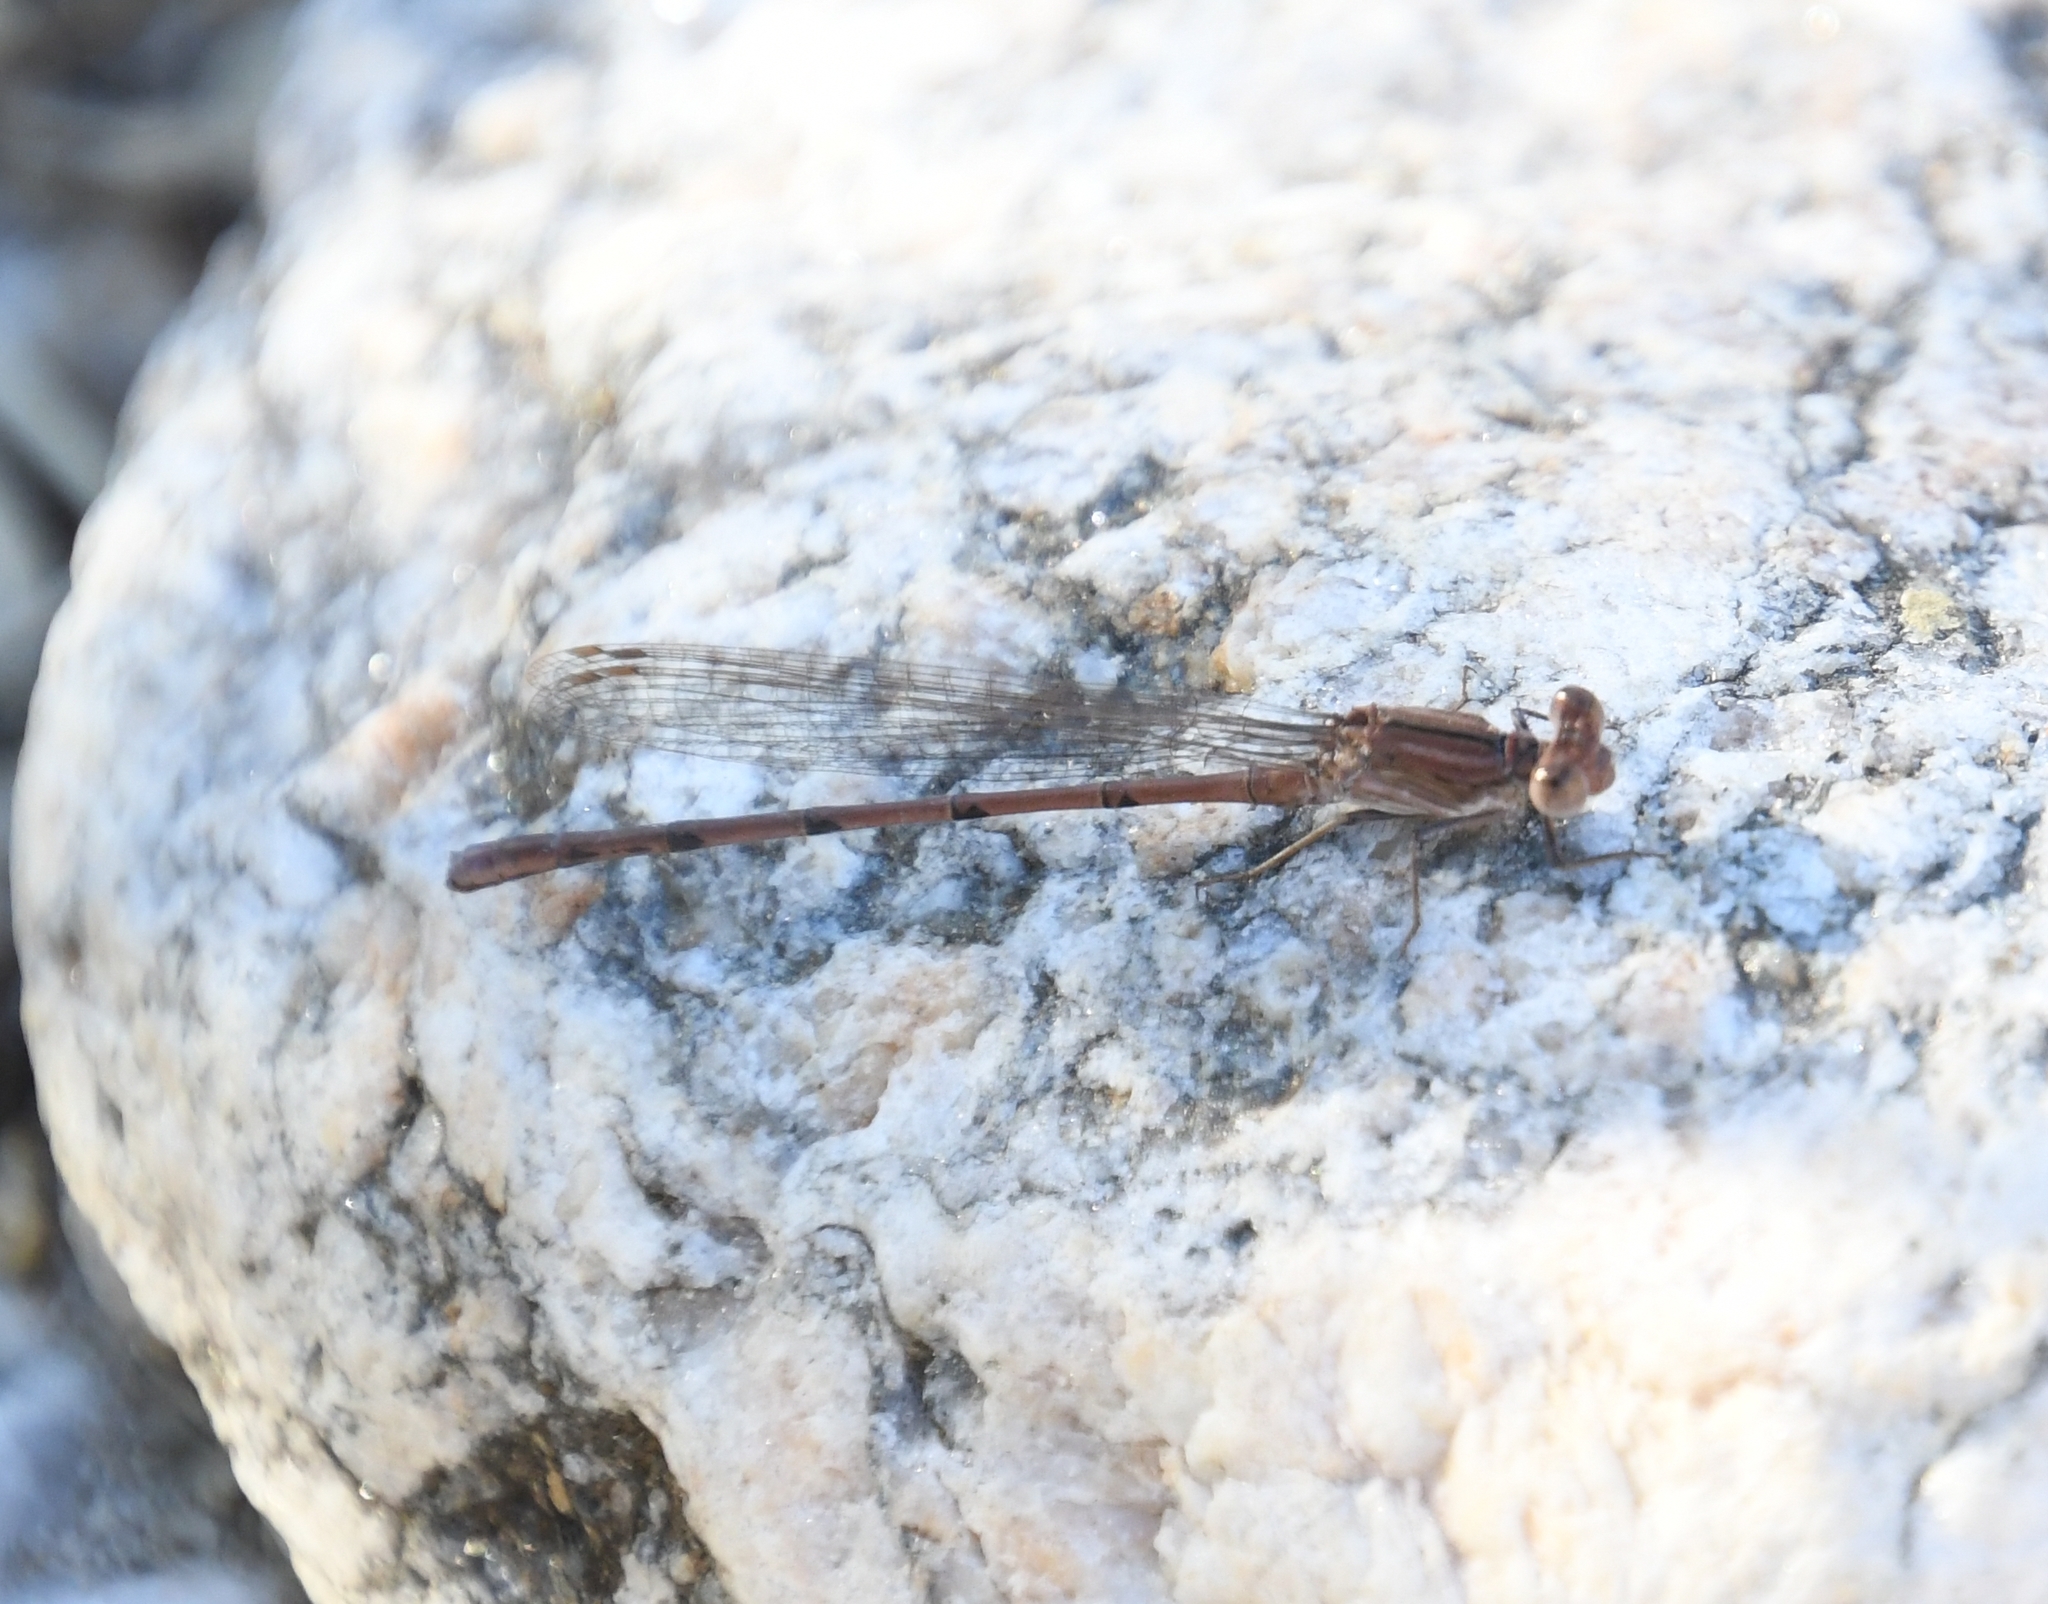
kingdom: Animalia
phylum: Arthropoda
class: Insecta
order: Odonata
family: Coenagrionidae
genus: Argia
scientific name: Argia pallens
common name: Amethyst dancer
